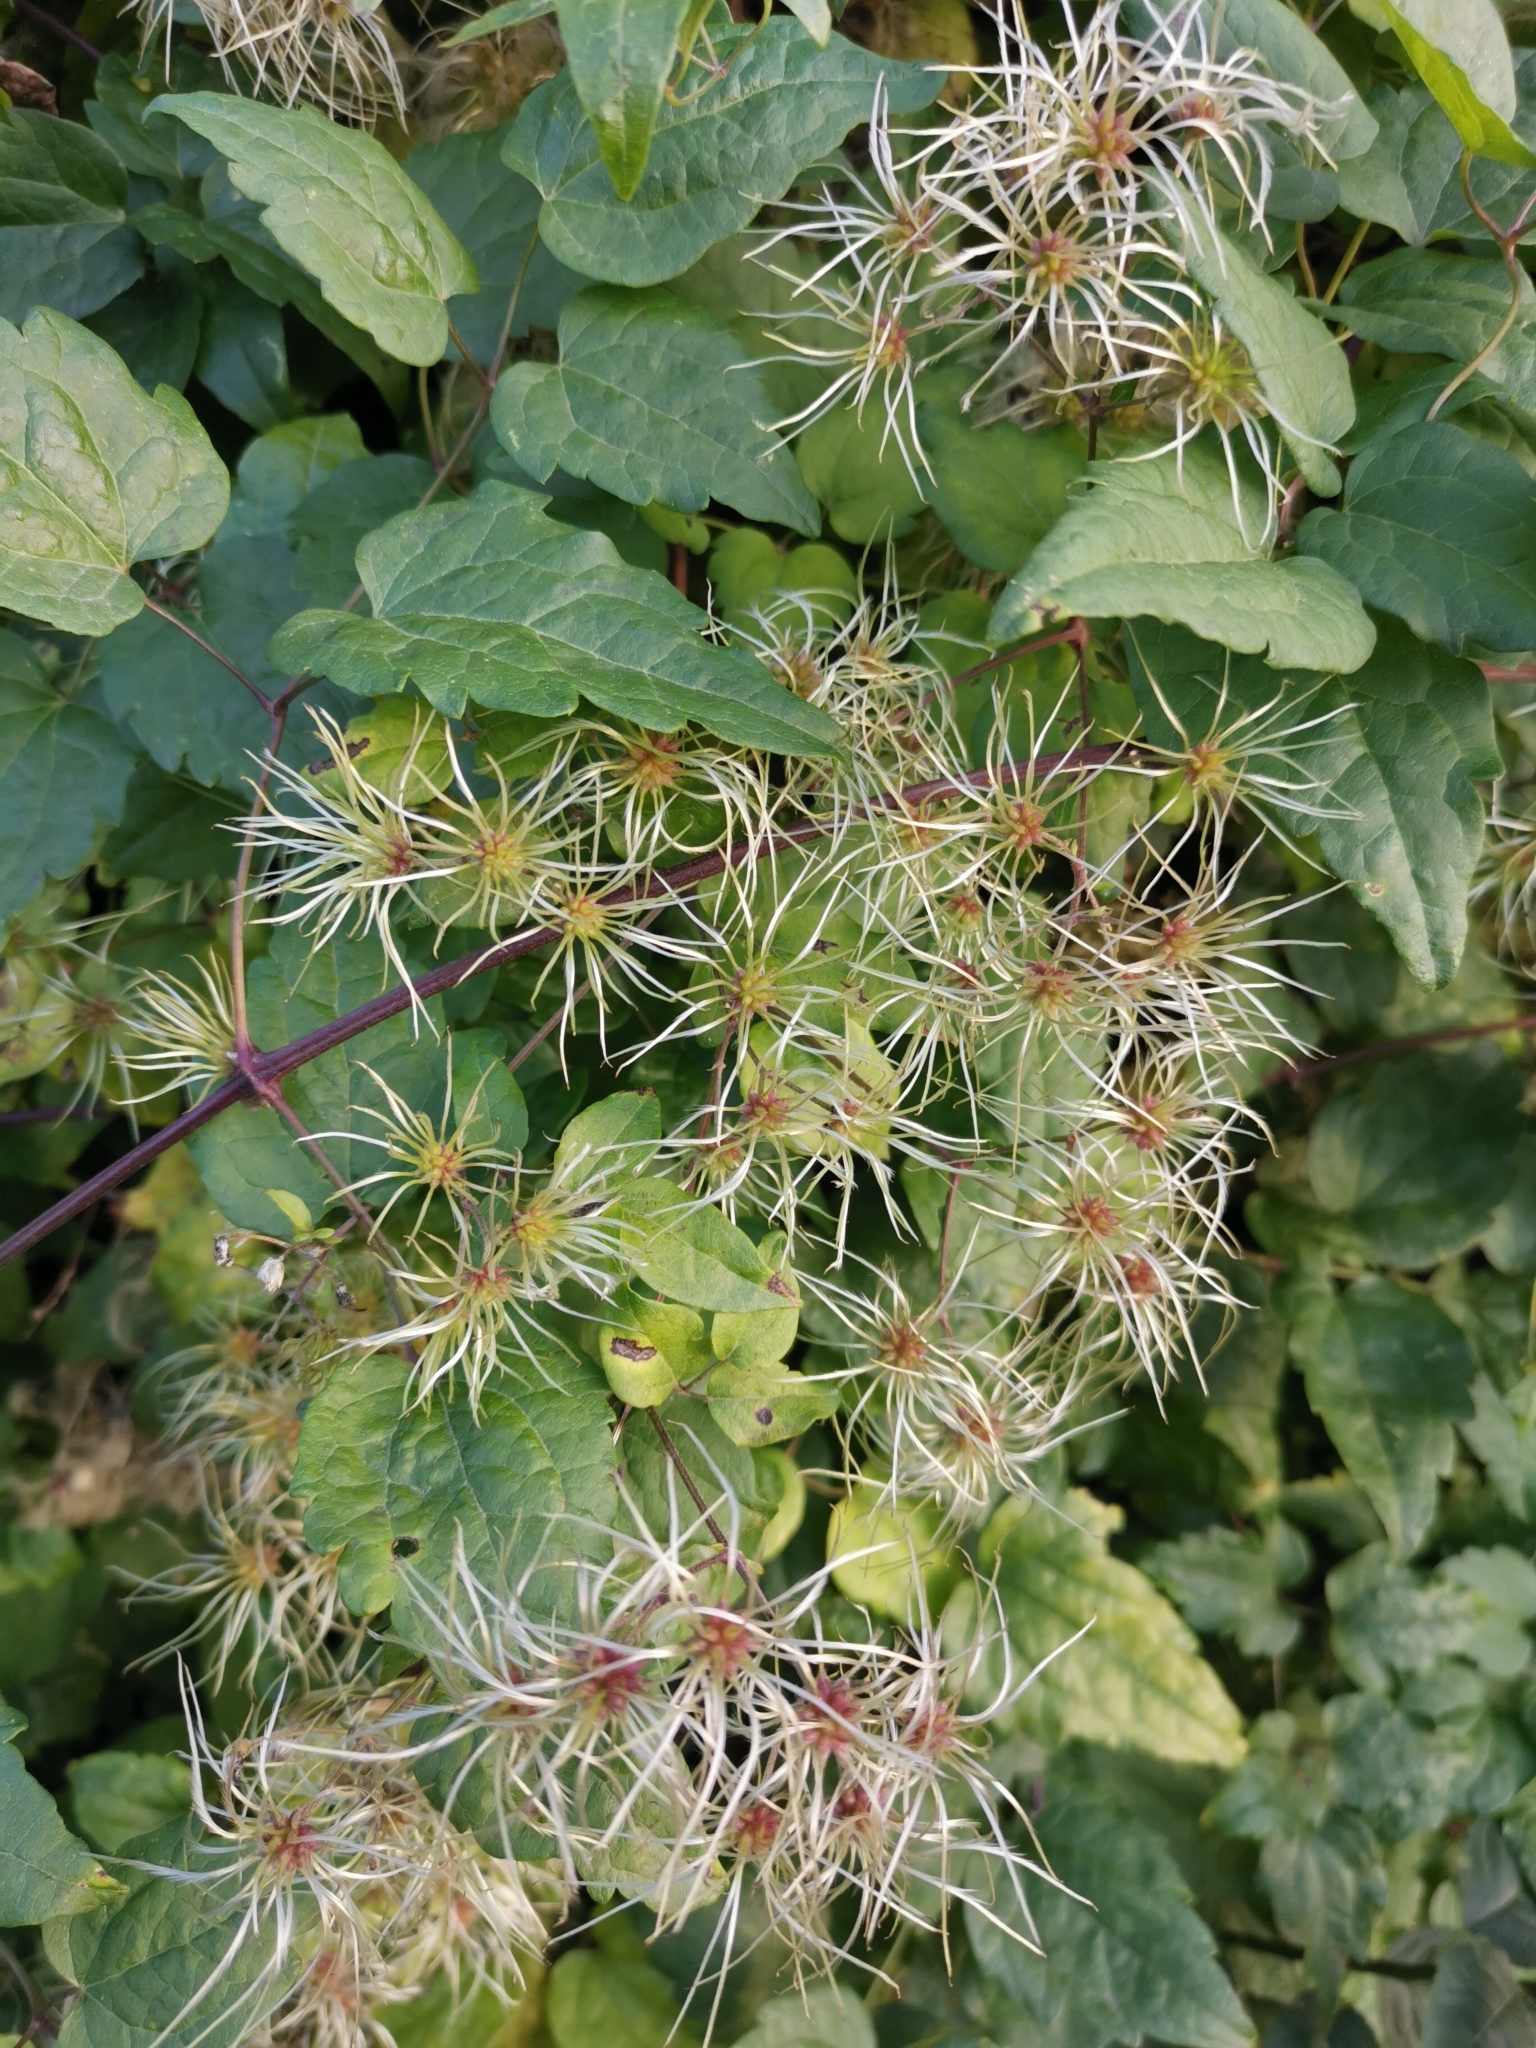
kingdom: Plantae
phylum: Tracheophyta
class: Magnoliopsida
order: Ranunculales
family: Ranunculaceae
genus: Clematis
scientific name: Clematis vitalba
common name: Evergreen clematis
